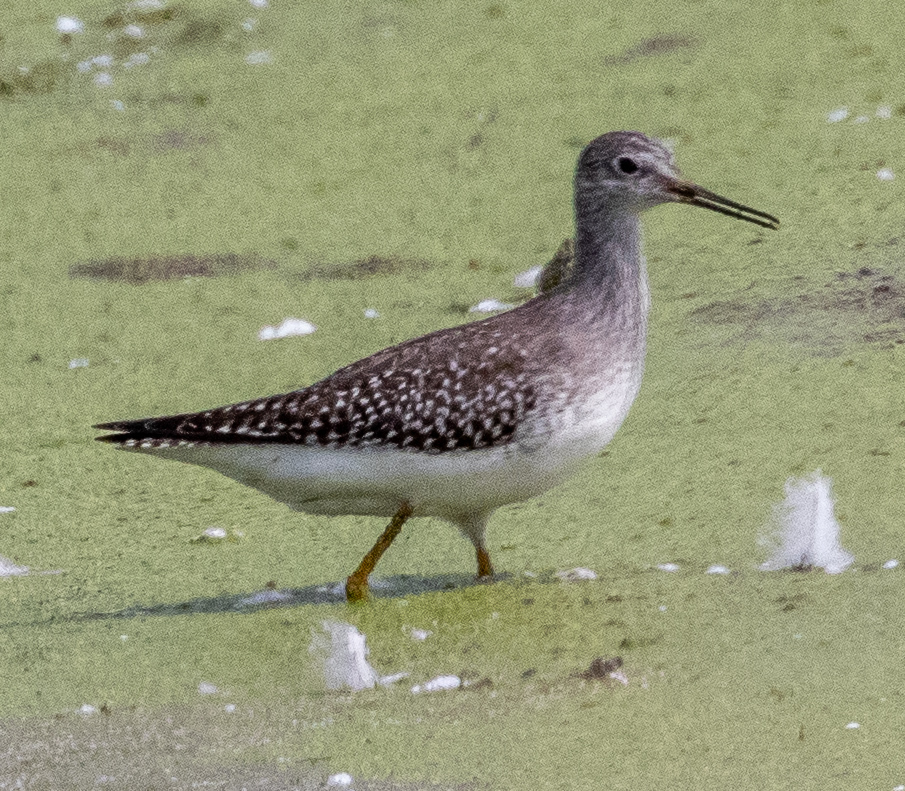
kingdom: Animalia
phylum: Chordata
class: Aves
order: Charadriiformes
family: Scolopacidae
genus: Tringa
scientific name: Tringa flavipes
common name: Lesser yellowlegs
